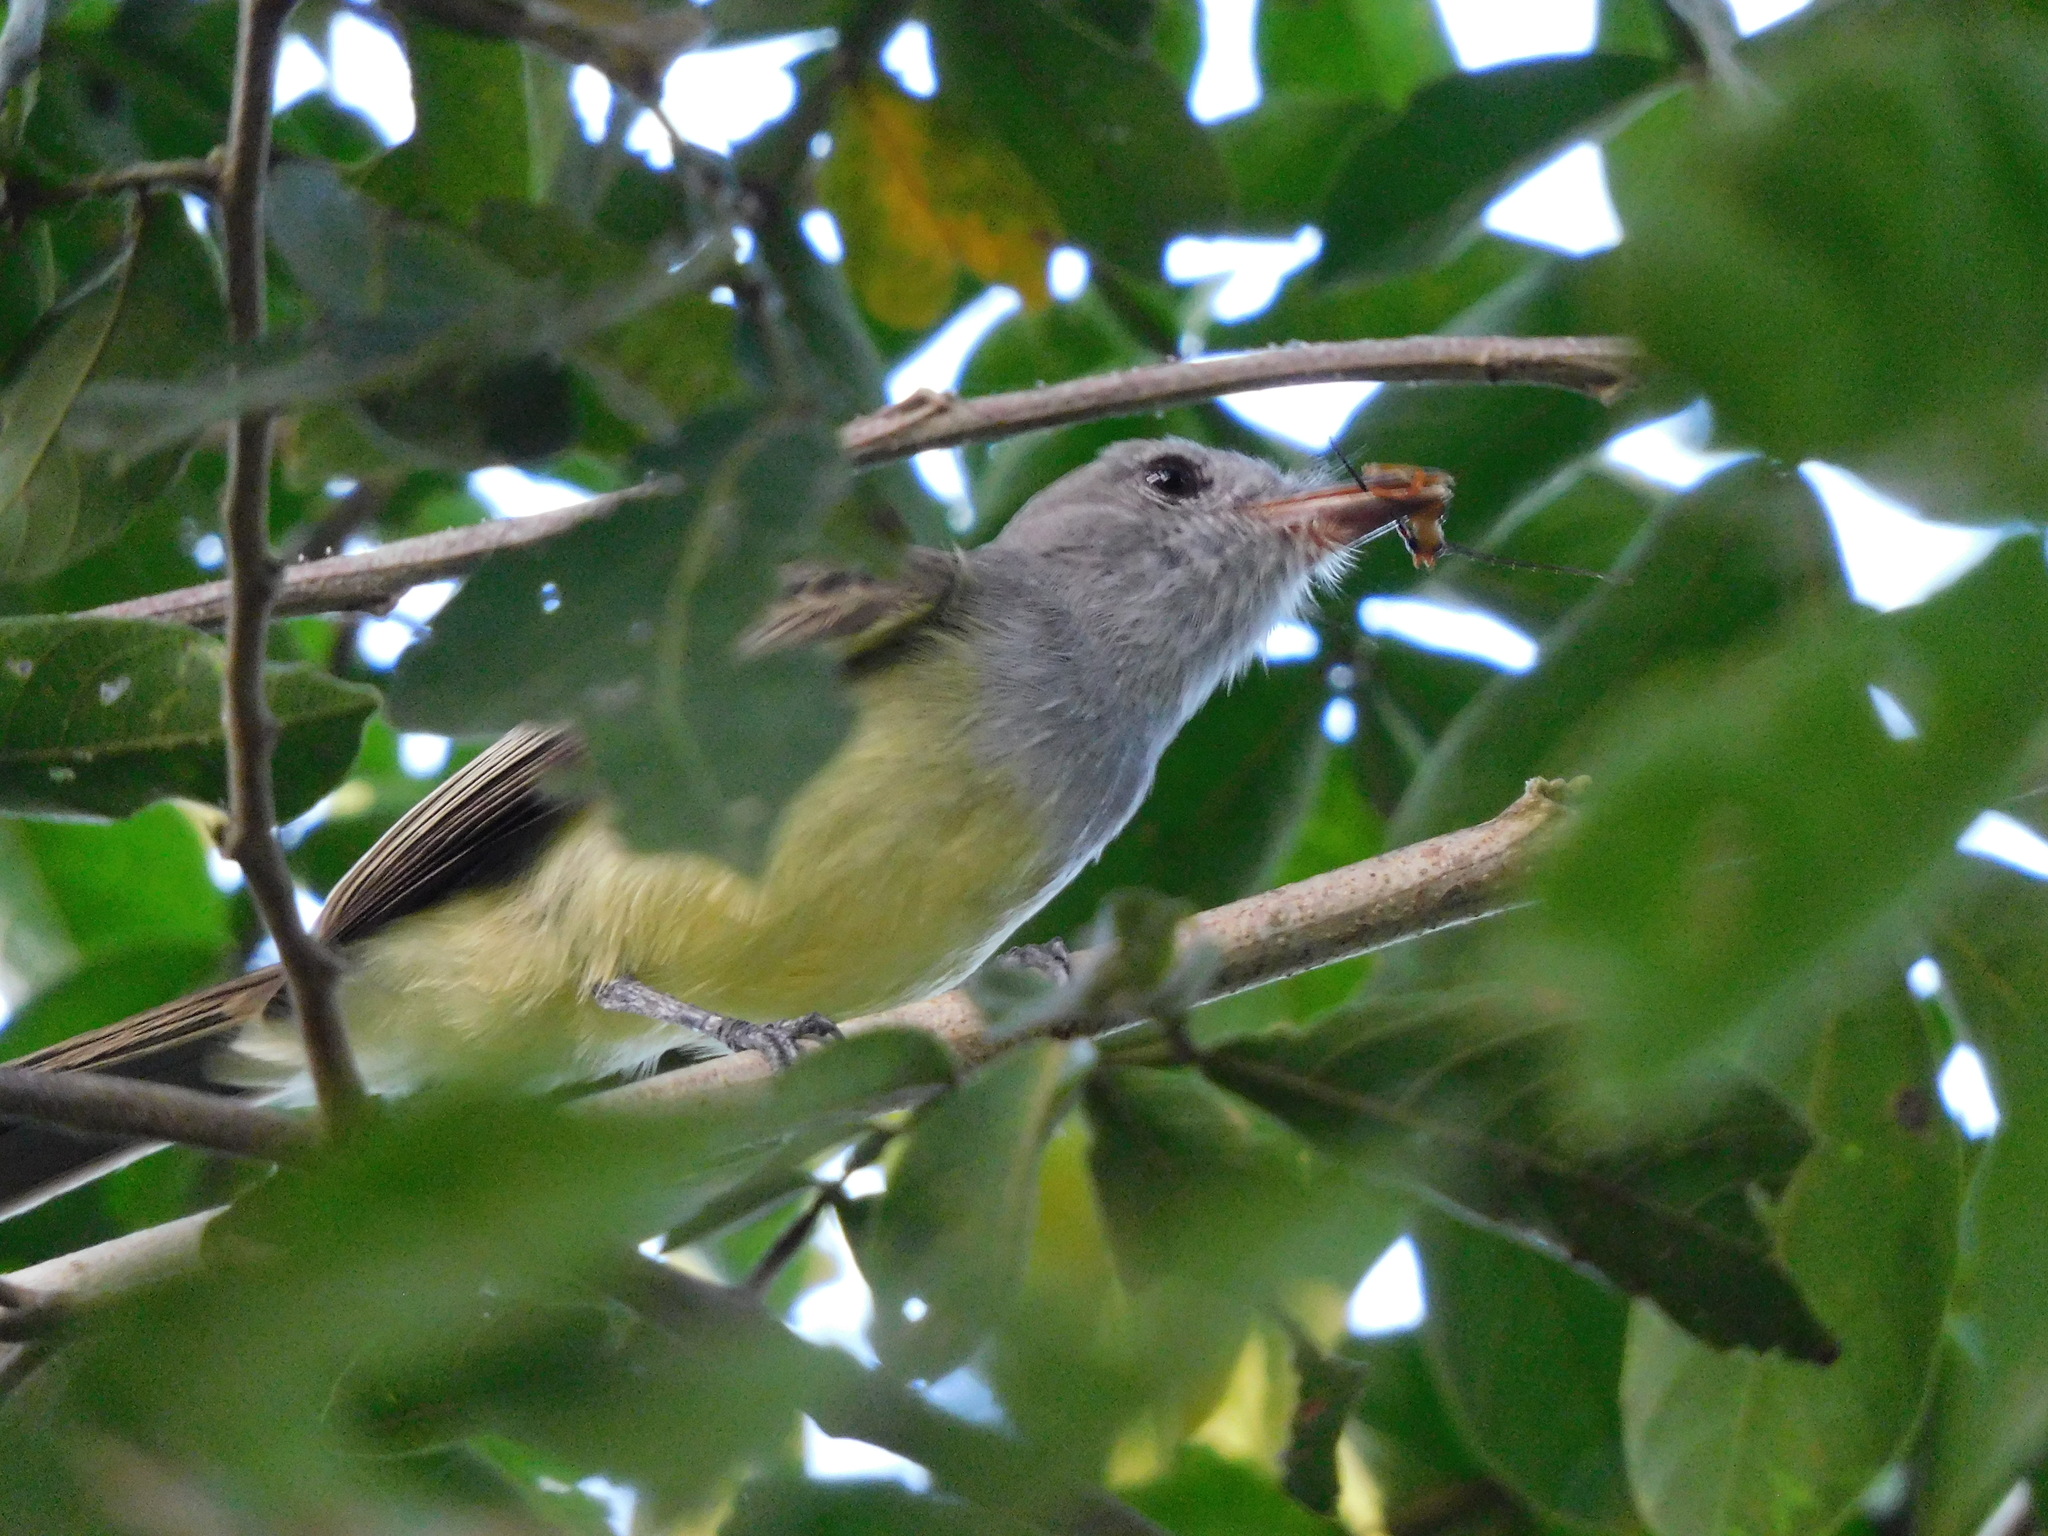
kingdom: Animalia
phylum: Chordata
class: Aves
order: Passeriformes
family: Tyrannidae
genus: Myiarchus
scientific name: Myiarchus panamensis
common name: Panama flycatcher
